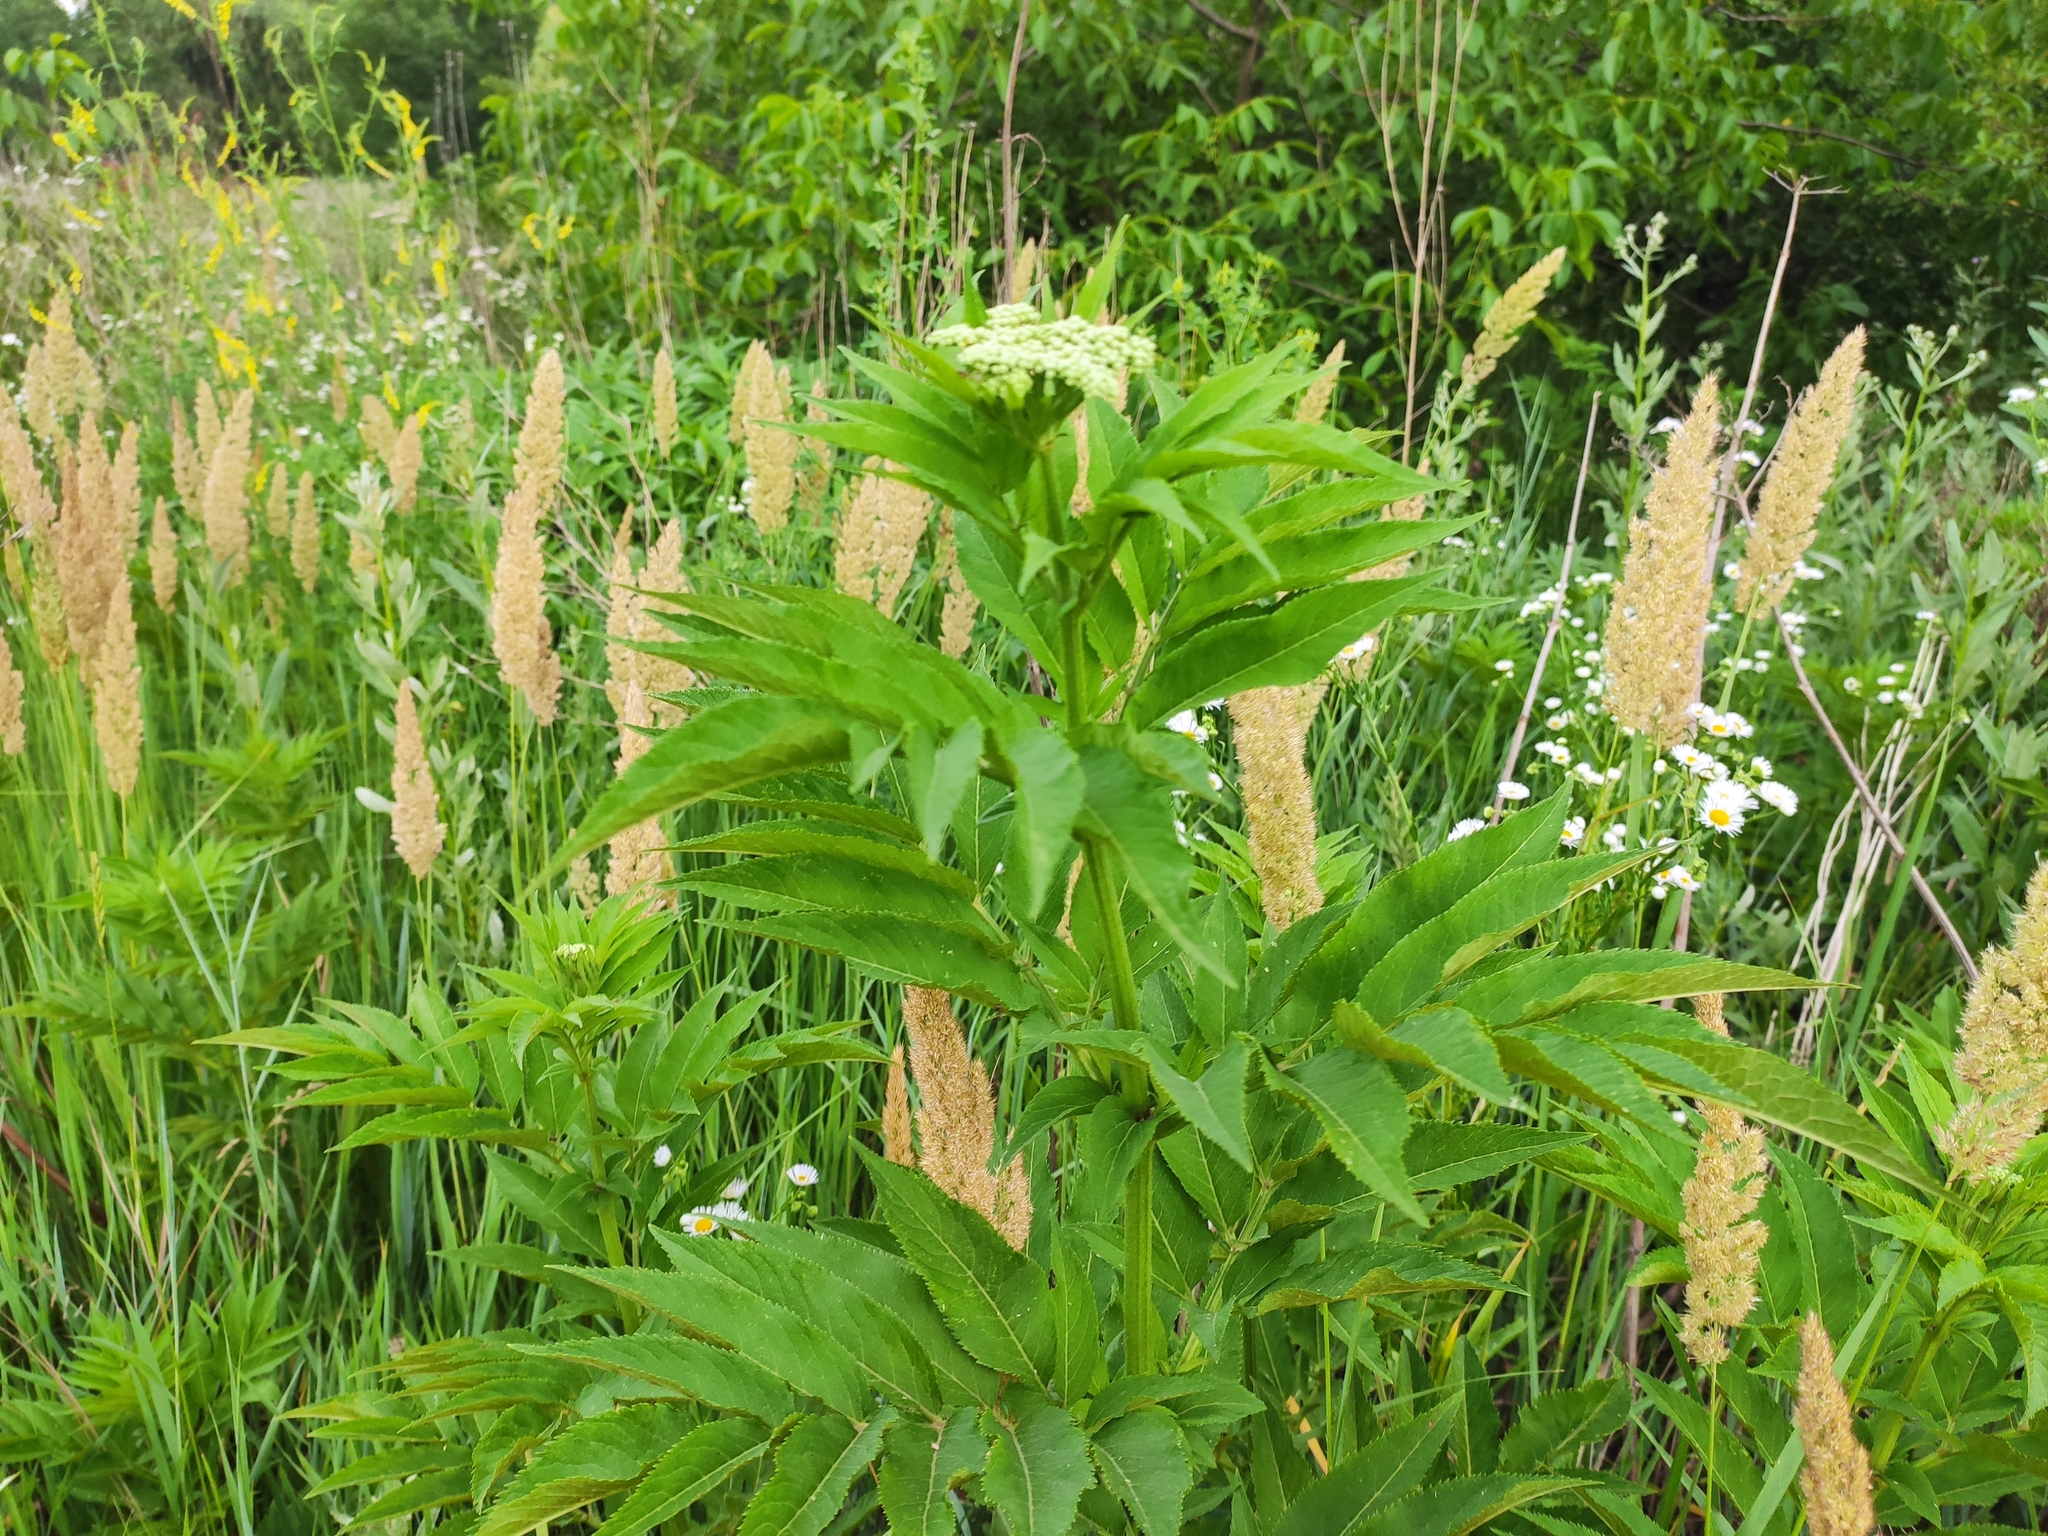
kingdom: Plantae
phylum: Tracheophyta
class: Magnoliopsida
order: Dipsacales
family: Viburnaceae
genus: Sambucus
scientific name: Sambucus ebulus
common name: Dwarf elder
